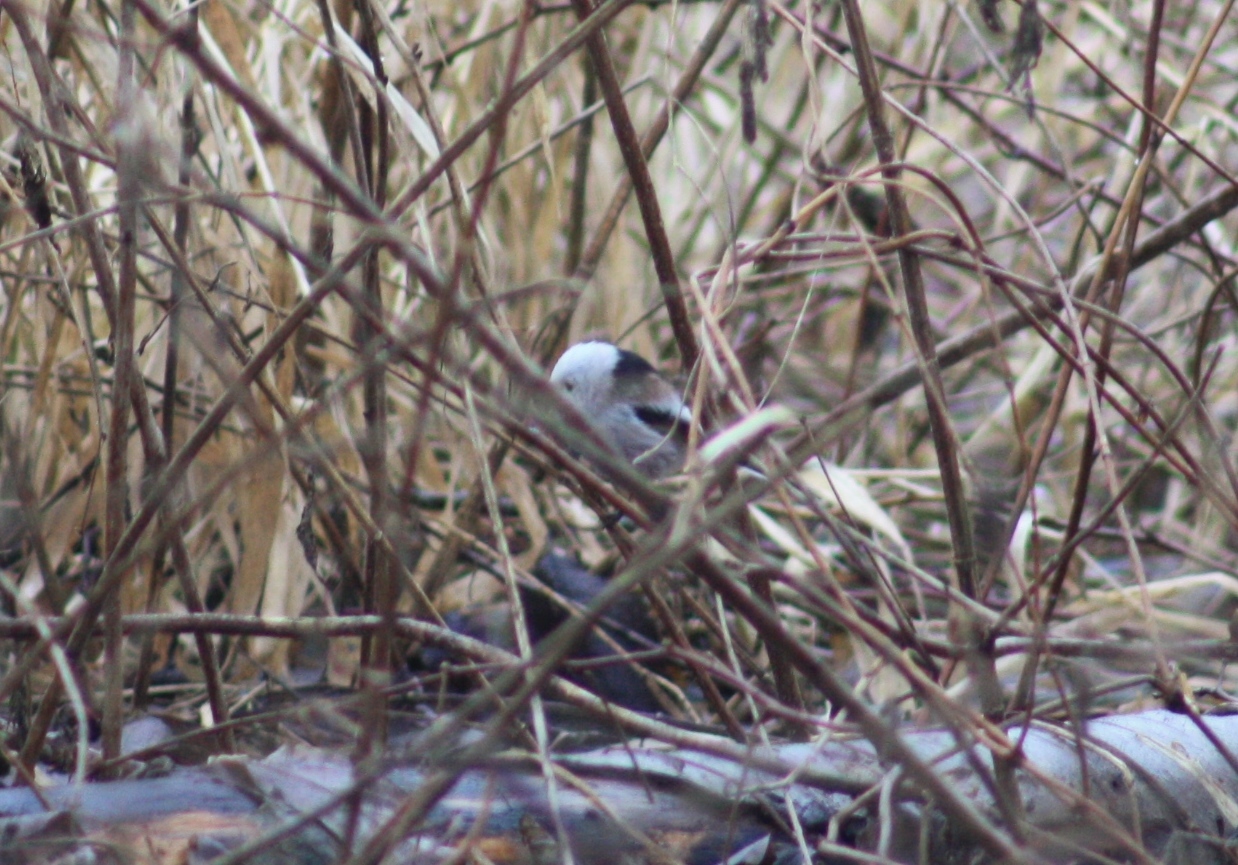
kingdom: Animalia
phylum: Chordata
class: Aves
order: Passeriformes
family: Aegithalidae
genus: Aegithalos
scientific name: Aegithalos caudatus
